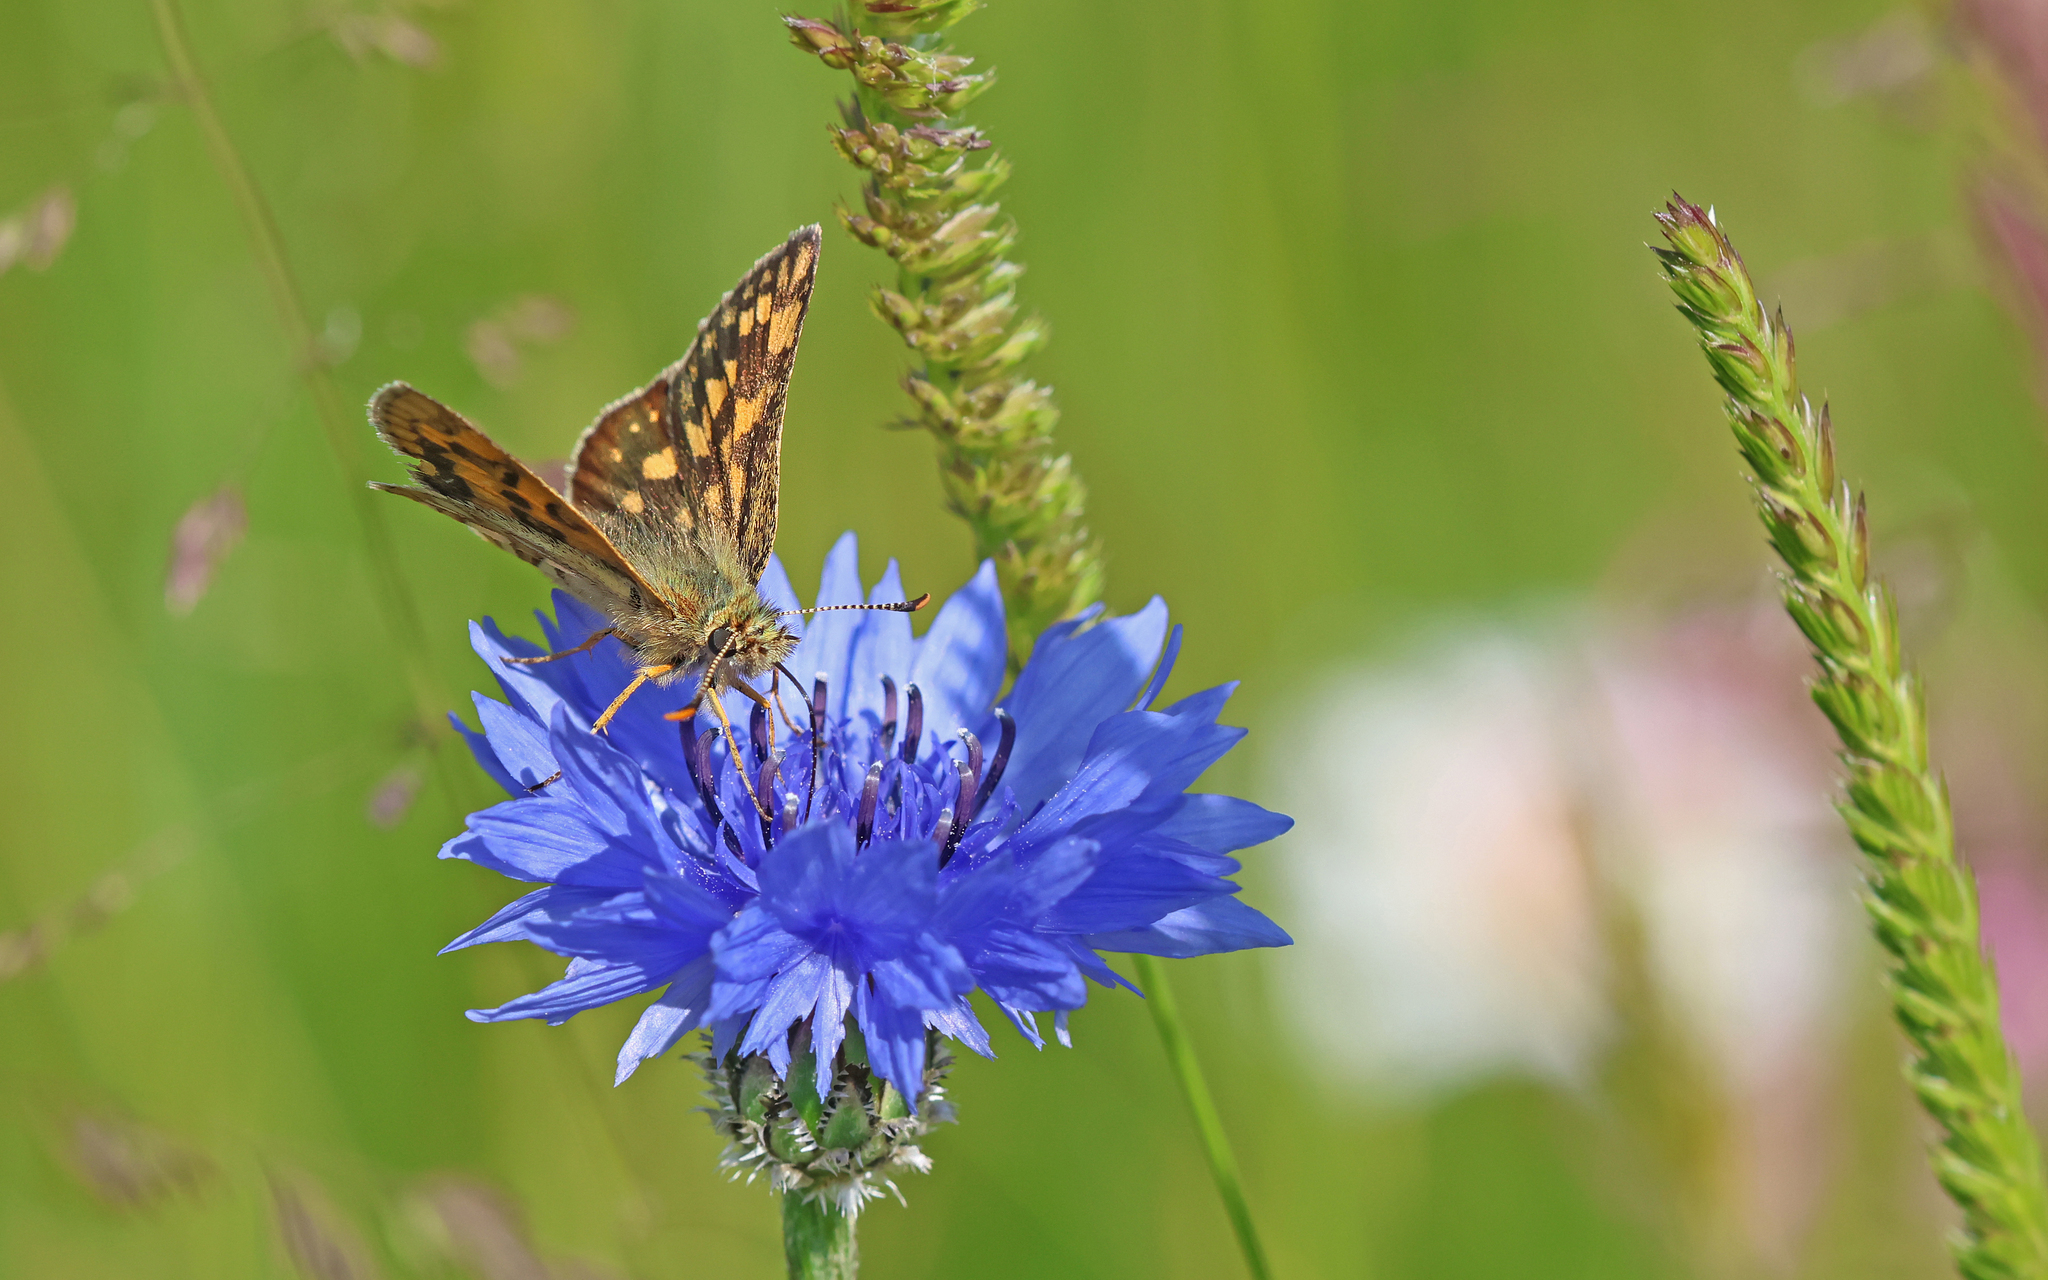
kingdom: Animalia
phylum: Arthropoda
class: Insecta
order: Lepidoptera
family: Hesperiidae
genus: Carterocephalus
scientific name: Carterocephalus palaemon
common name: Chequered skipper
